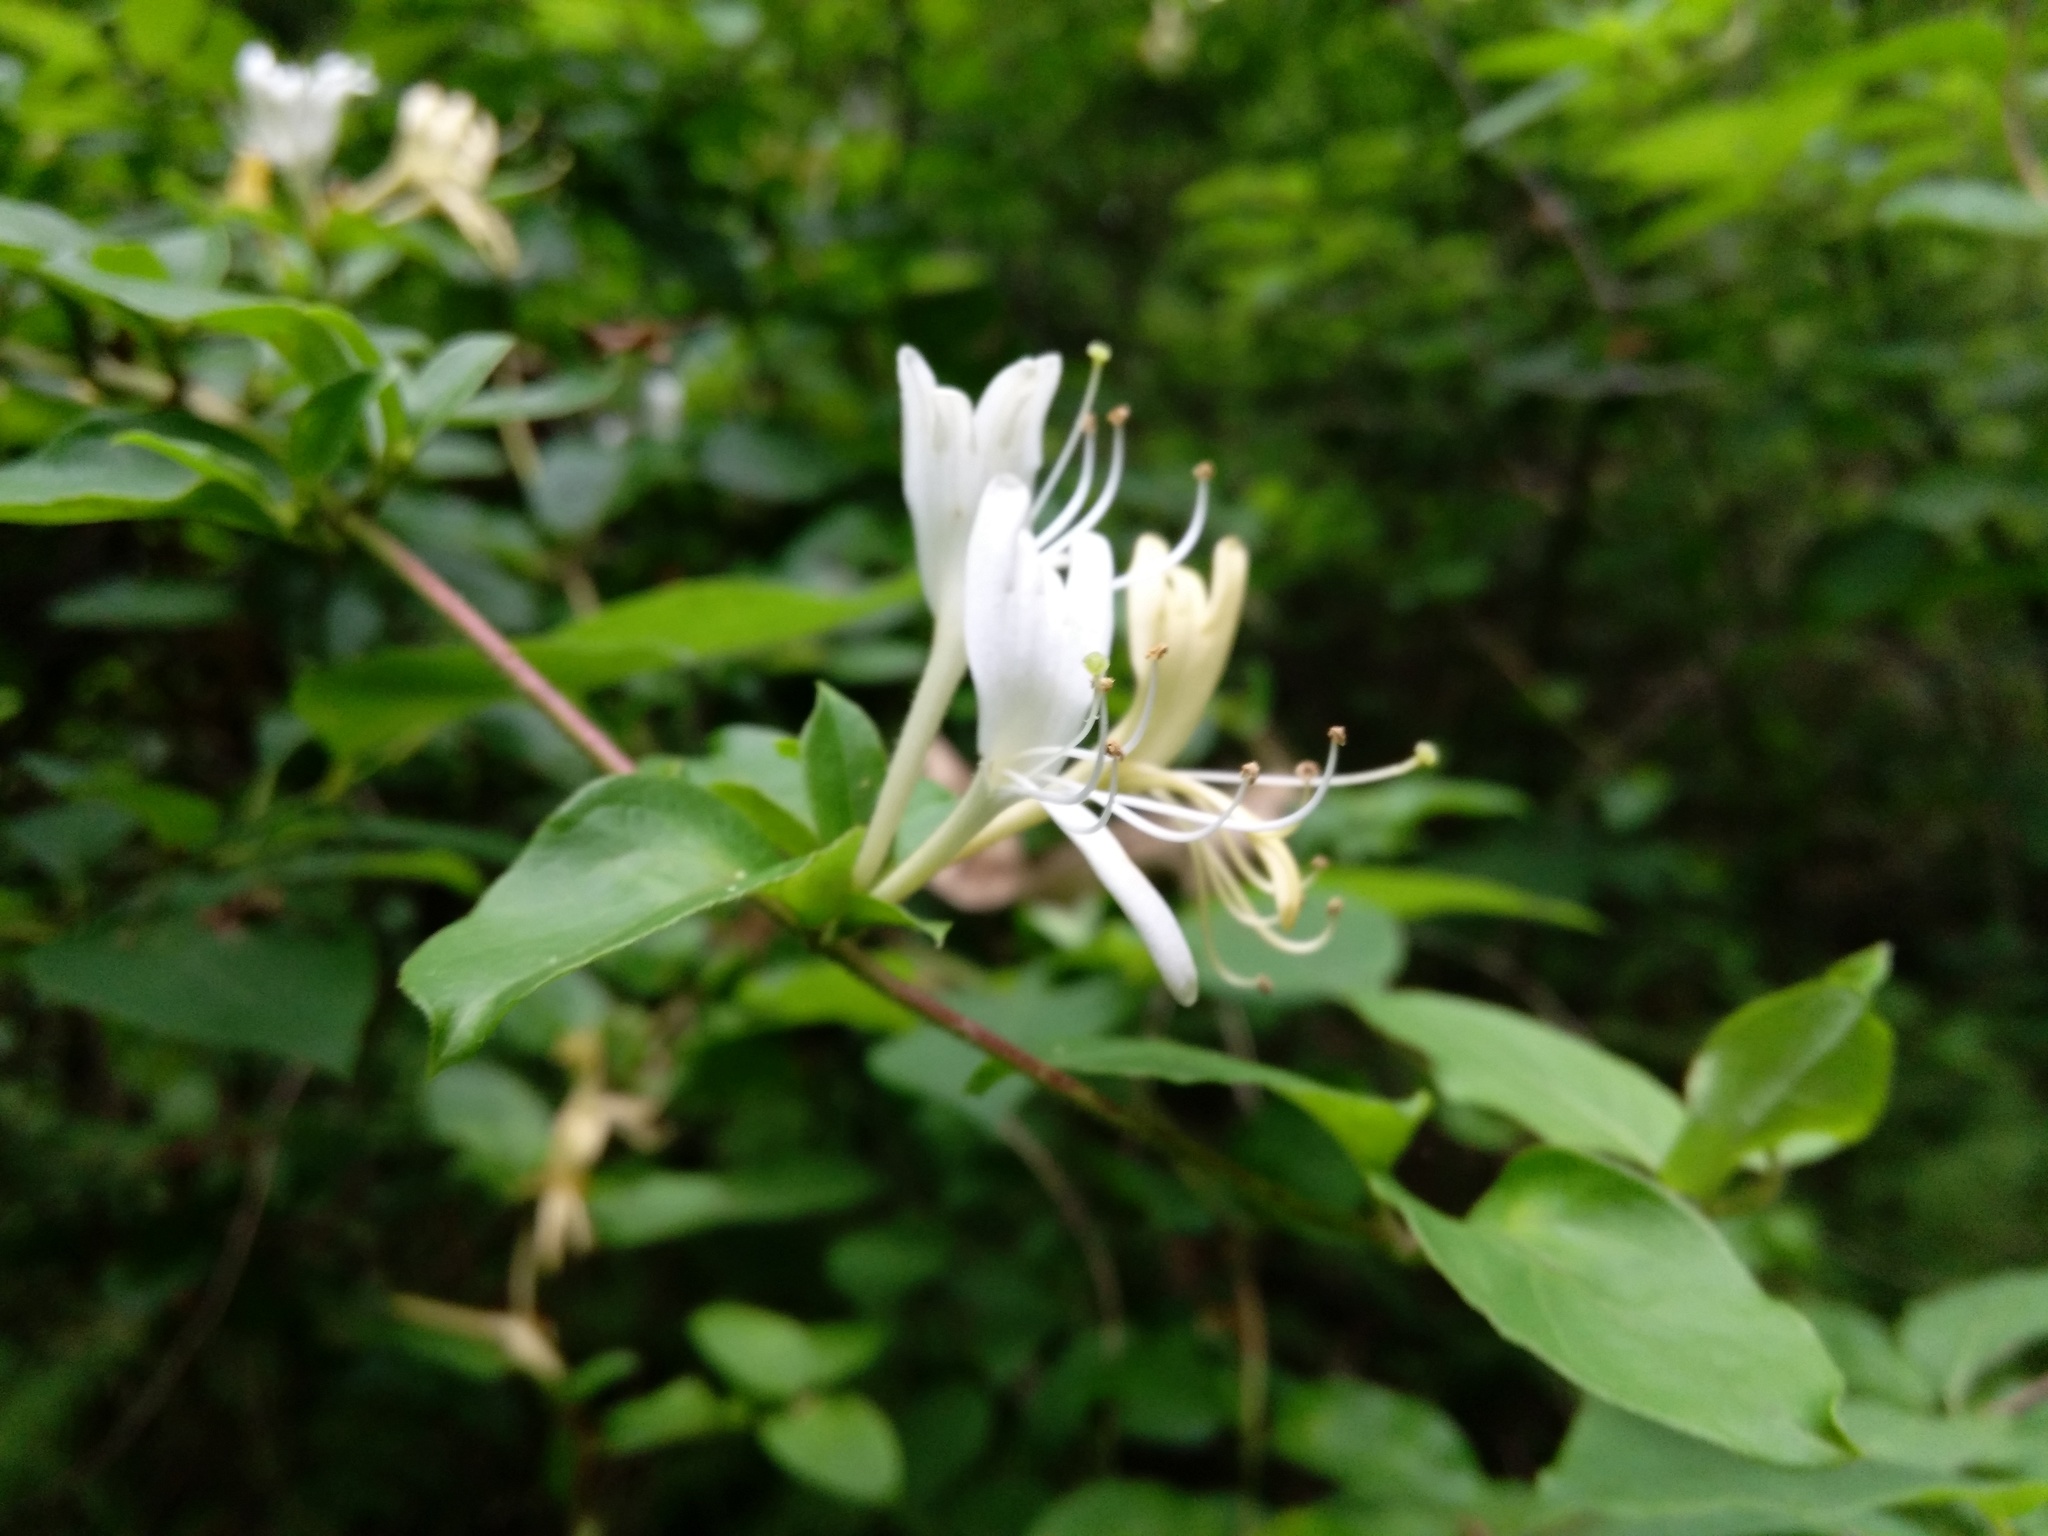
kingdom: Plantae
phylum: Tracheophyta
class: Magnoliopsida
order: Dipsacales
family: Caprifoliaceae
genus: Lonicera
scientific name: Lonicera japonica
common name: Japanese honeysuckle
